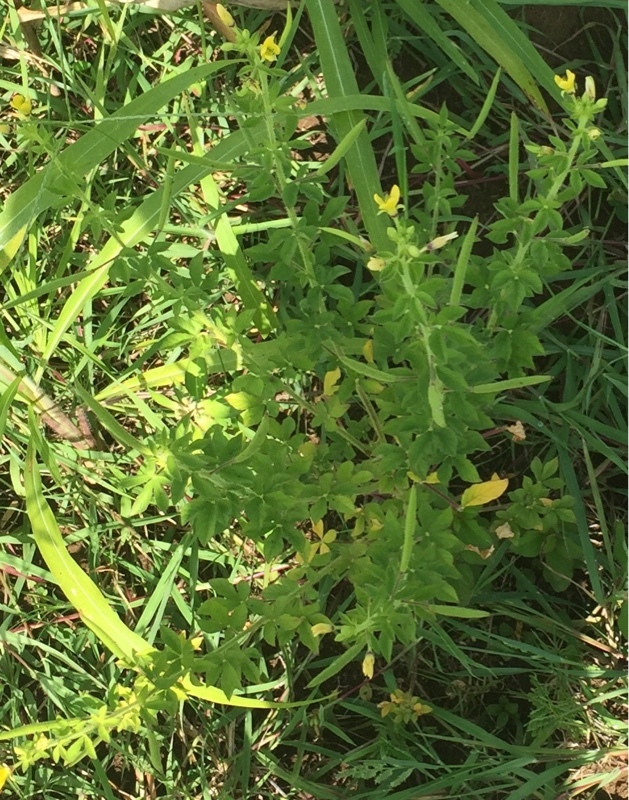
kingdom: Plantae
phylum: Tracheophyta
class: Magnoliopsida
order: Brassicales
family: Cleomaceae
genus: Arivela
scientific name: Arivela viscosa
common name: Asian spiderflower
